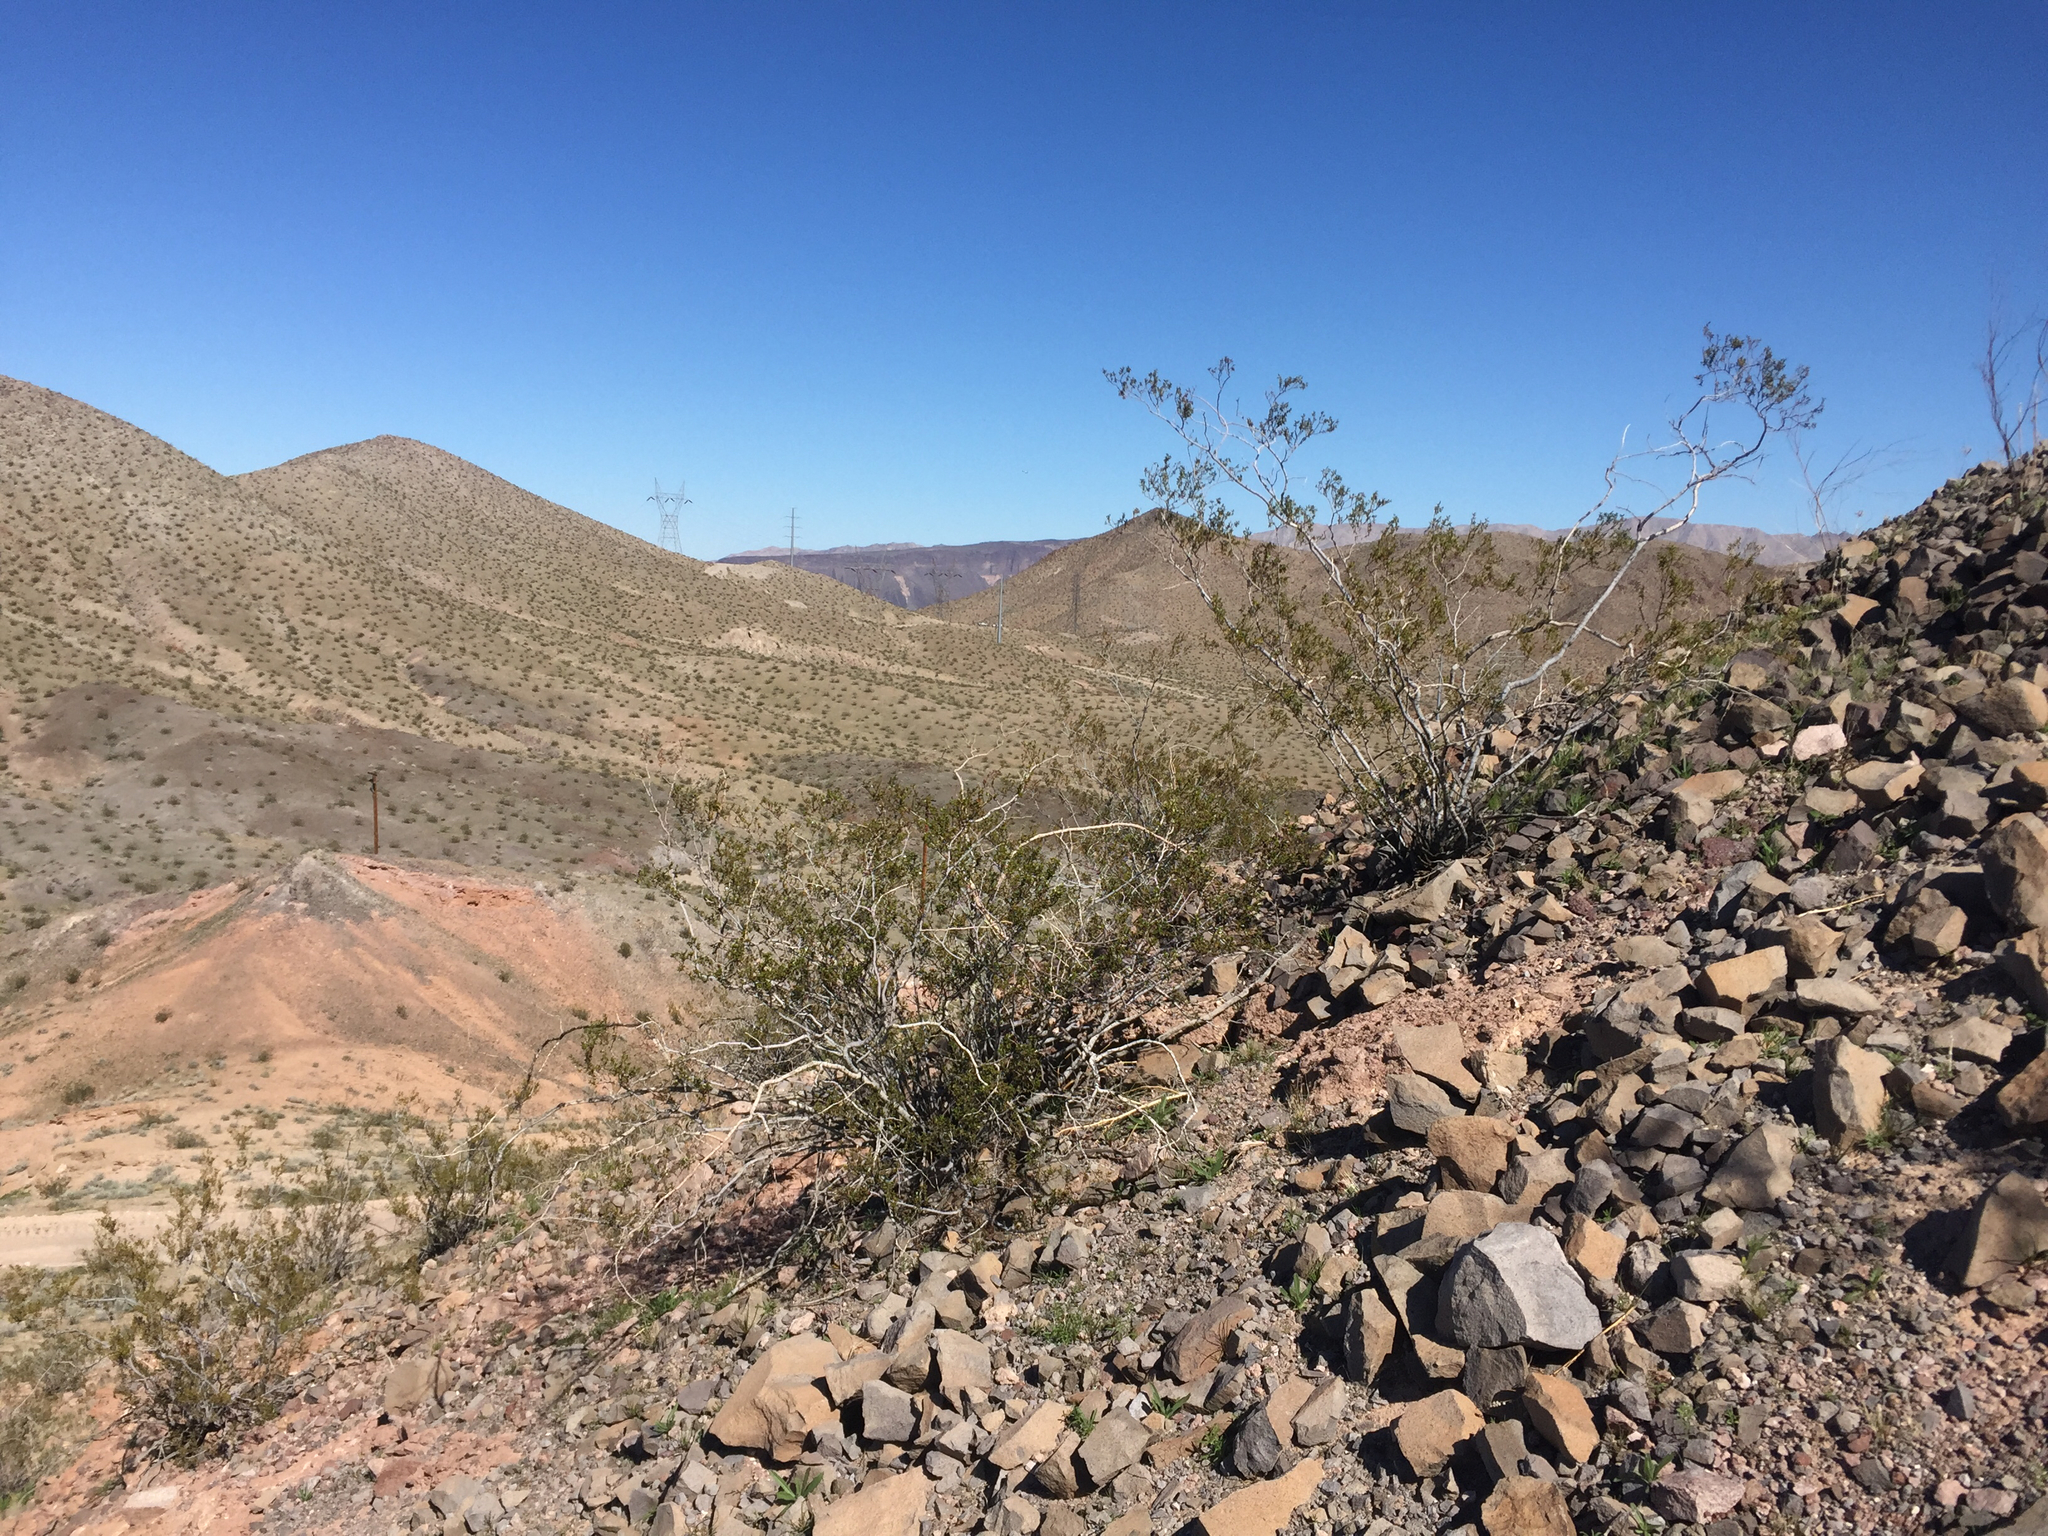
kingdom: Plantae
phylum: Tracheophyta
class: Magnoliopsida
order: Zygophyllales
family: Zygophyllaceae
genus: Larrea
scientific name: Larrea tridentata
